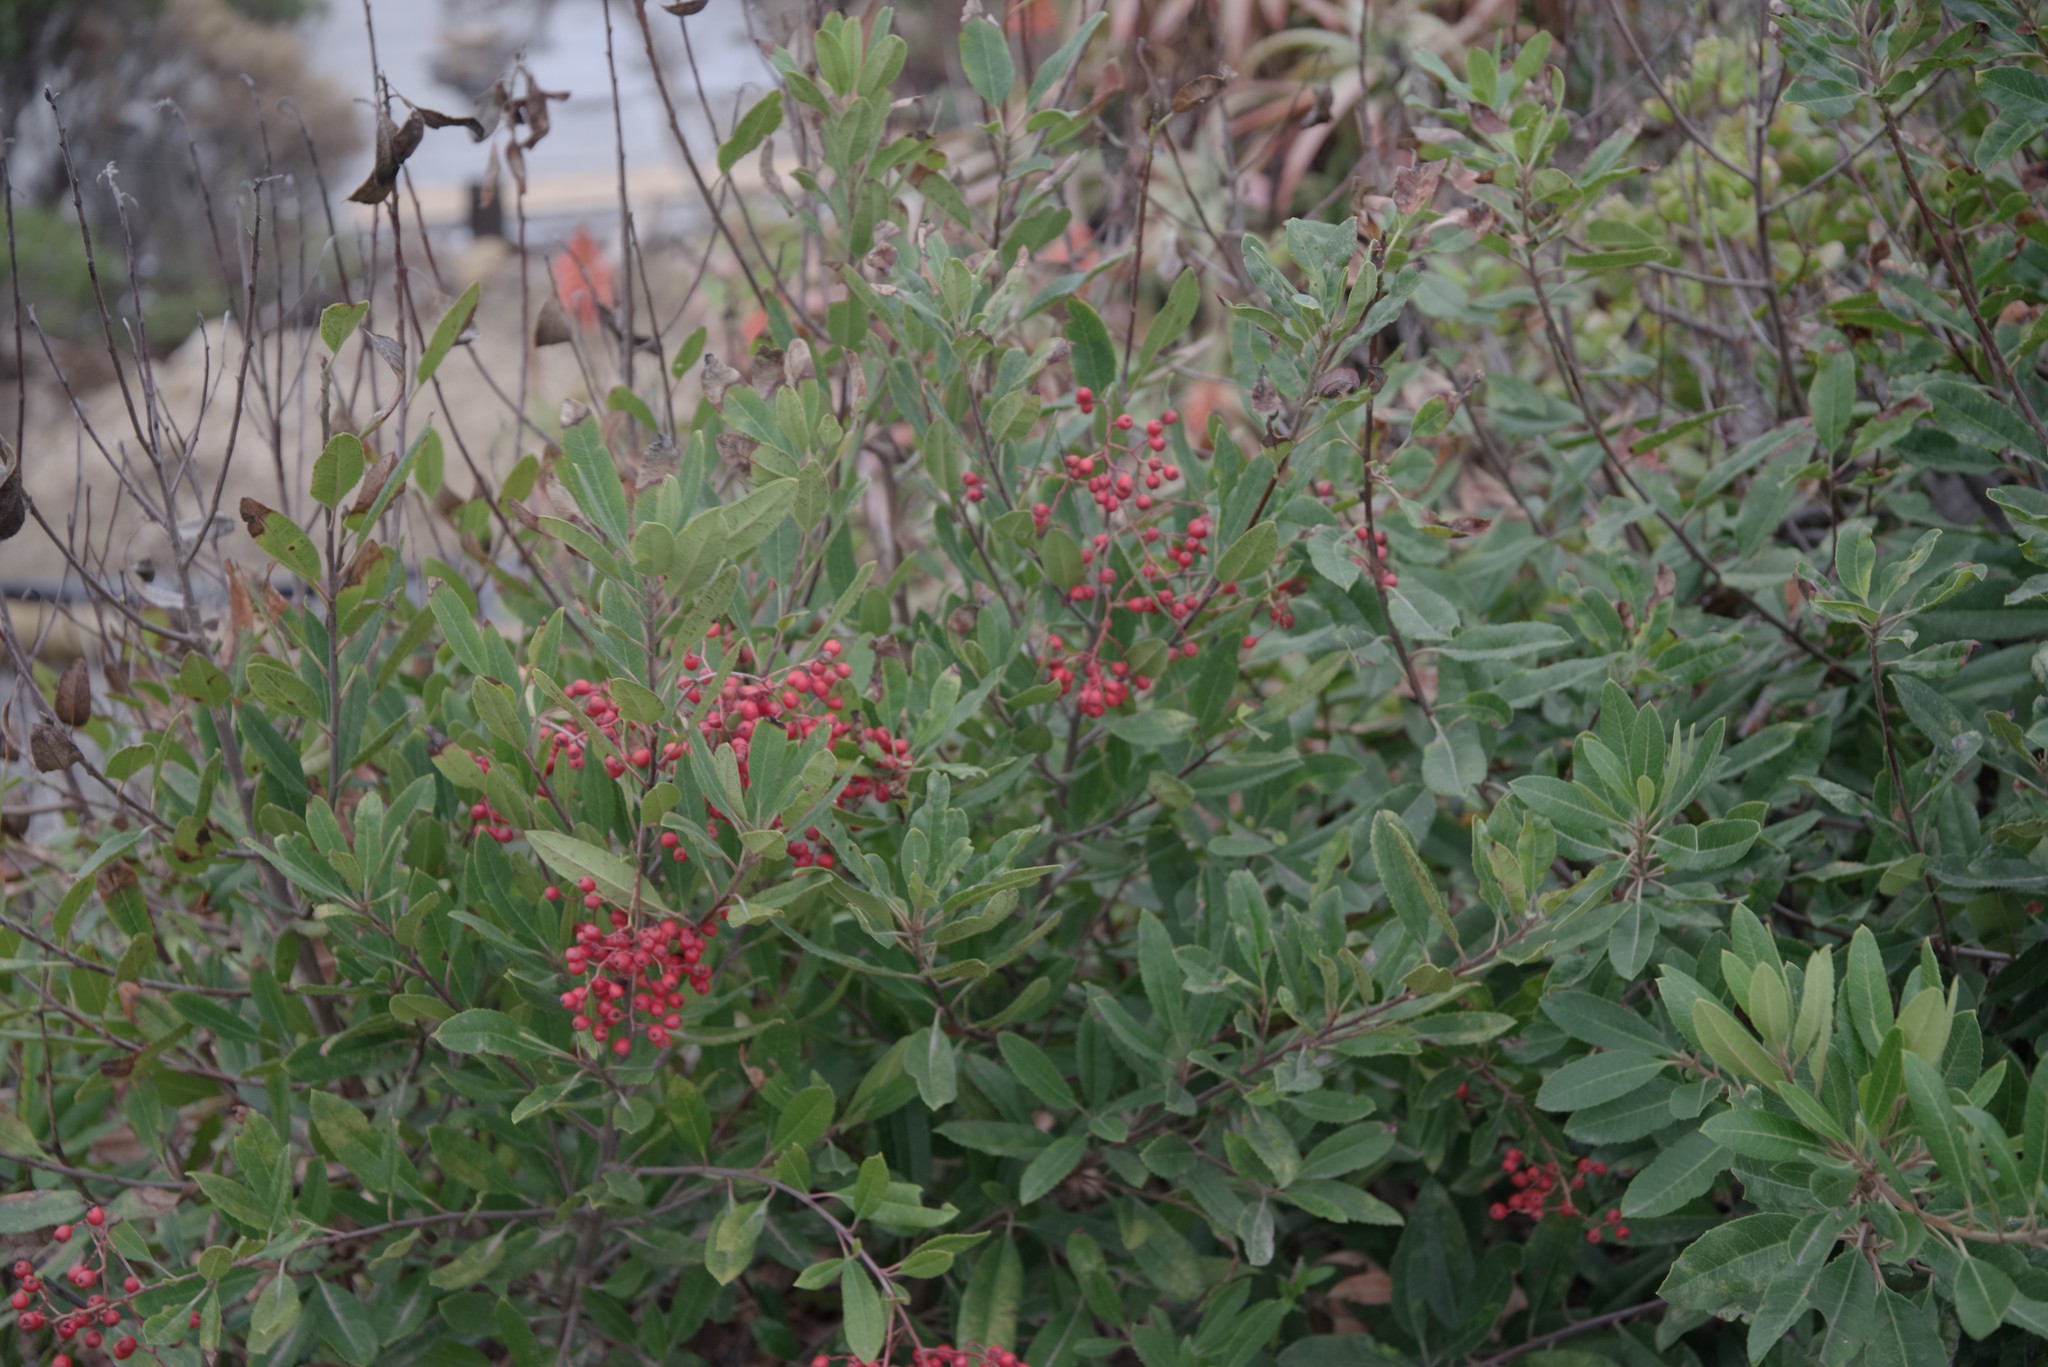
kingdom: Plantae
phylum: Tracheophyta
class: Magnoliopsida
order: Rosales
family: Rosaceae
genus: Heteromeles
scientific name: Heteromeles arbutifolia
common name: California-holly
